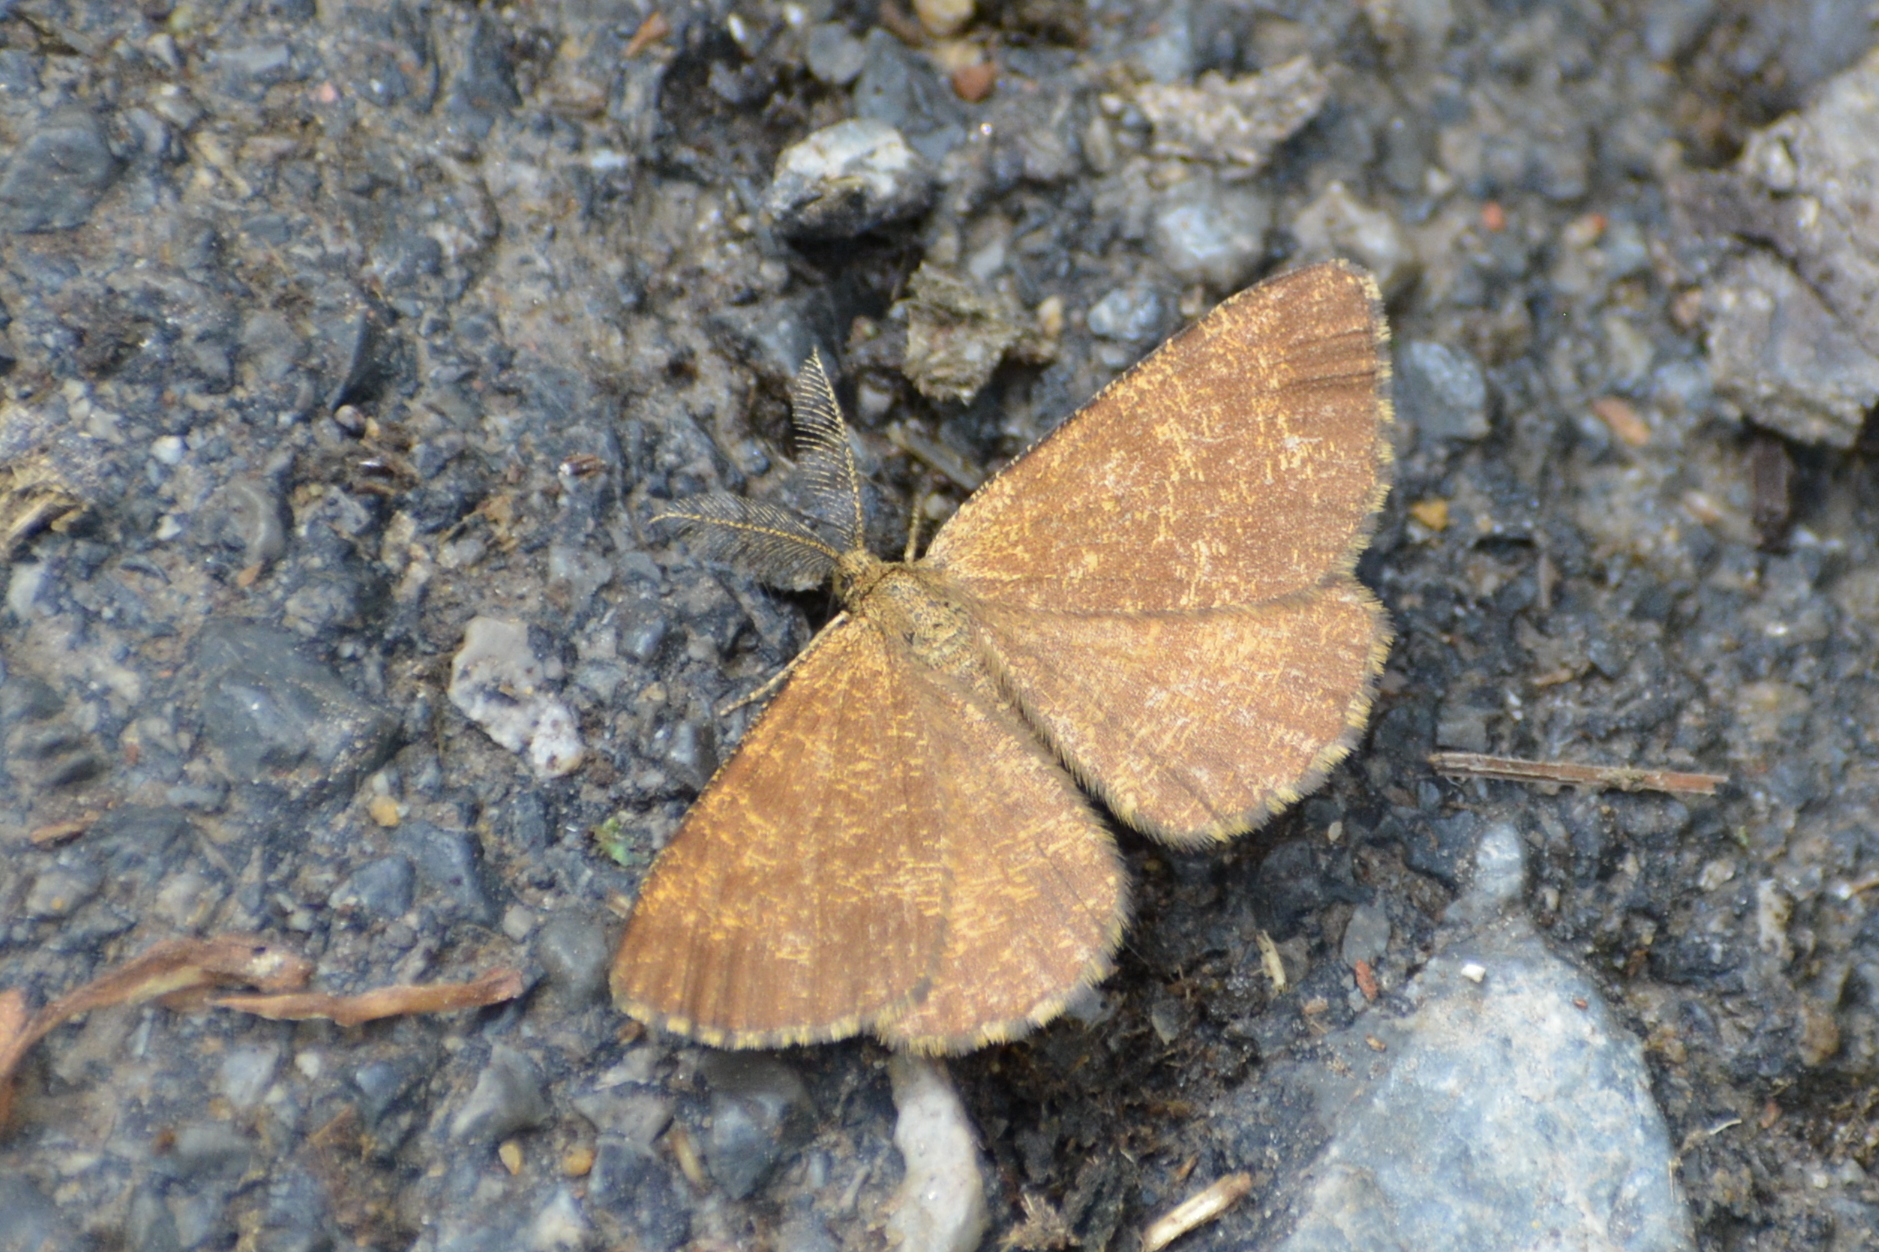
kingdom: Animalia
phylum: Arthropoda
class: Insecta
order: Lepidoptera
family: Geometridae
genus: Ematurga
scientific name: Ematurga atomaria
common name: Common heath
